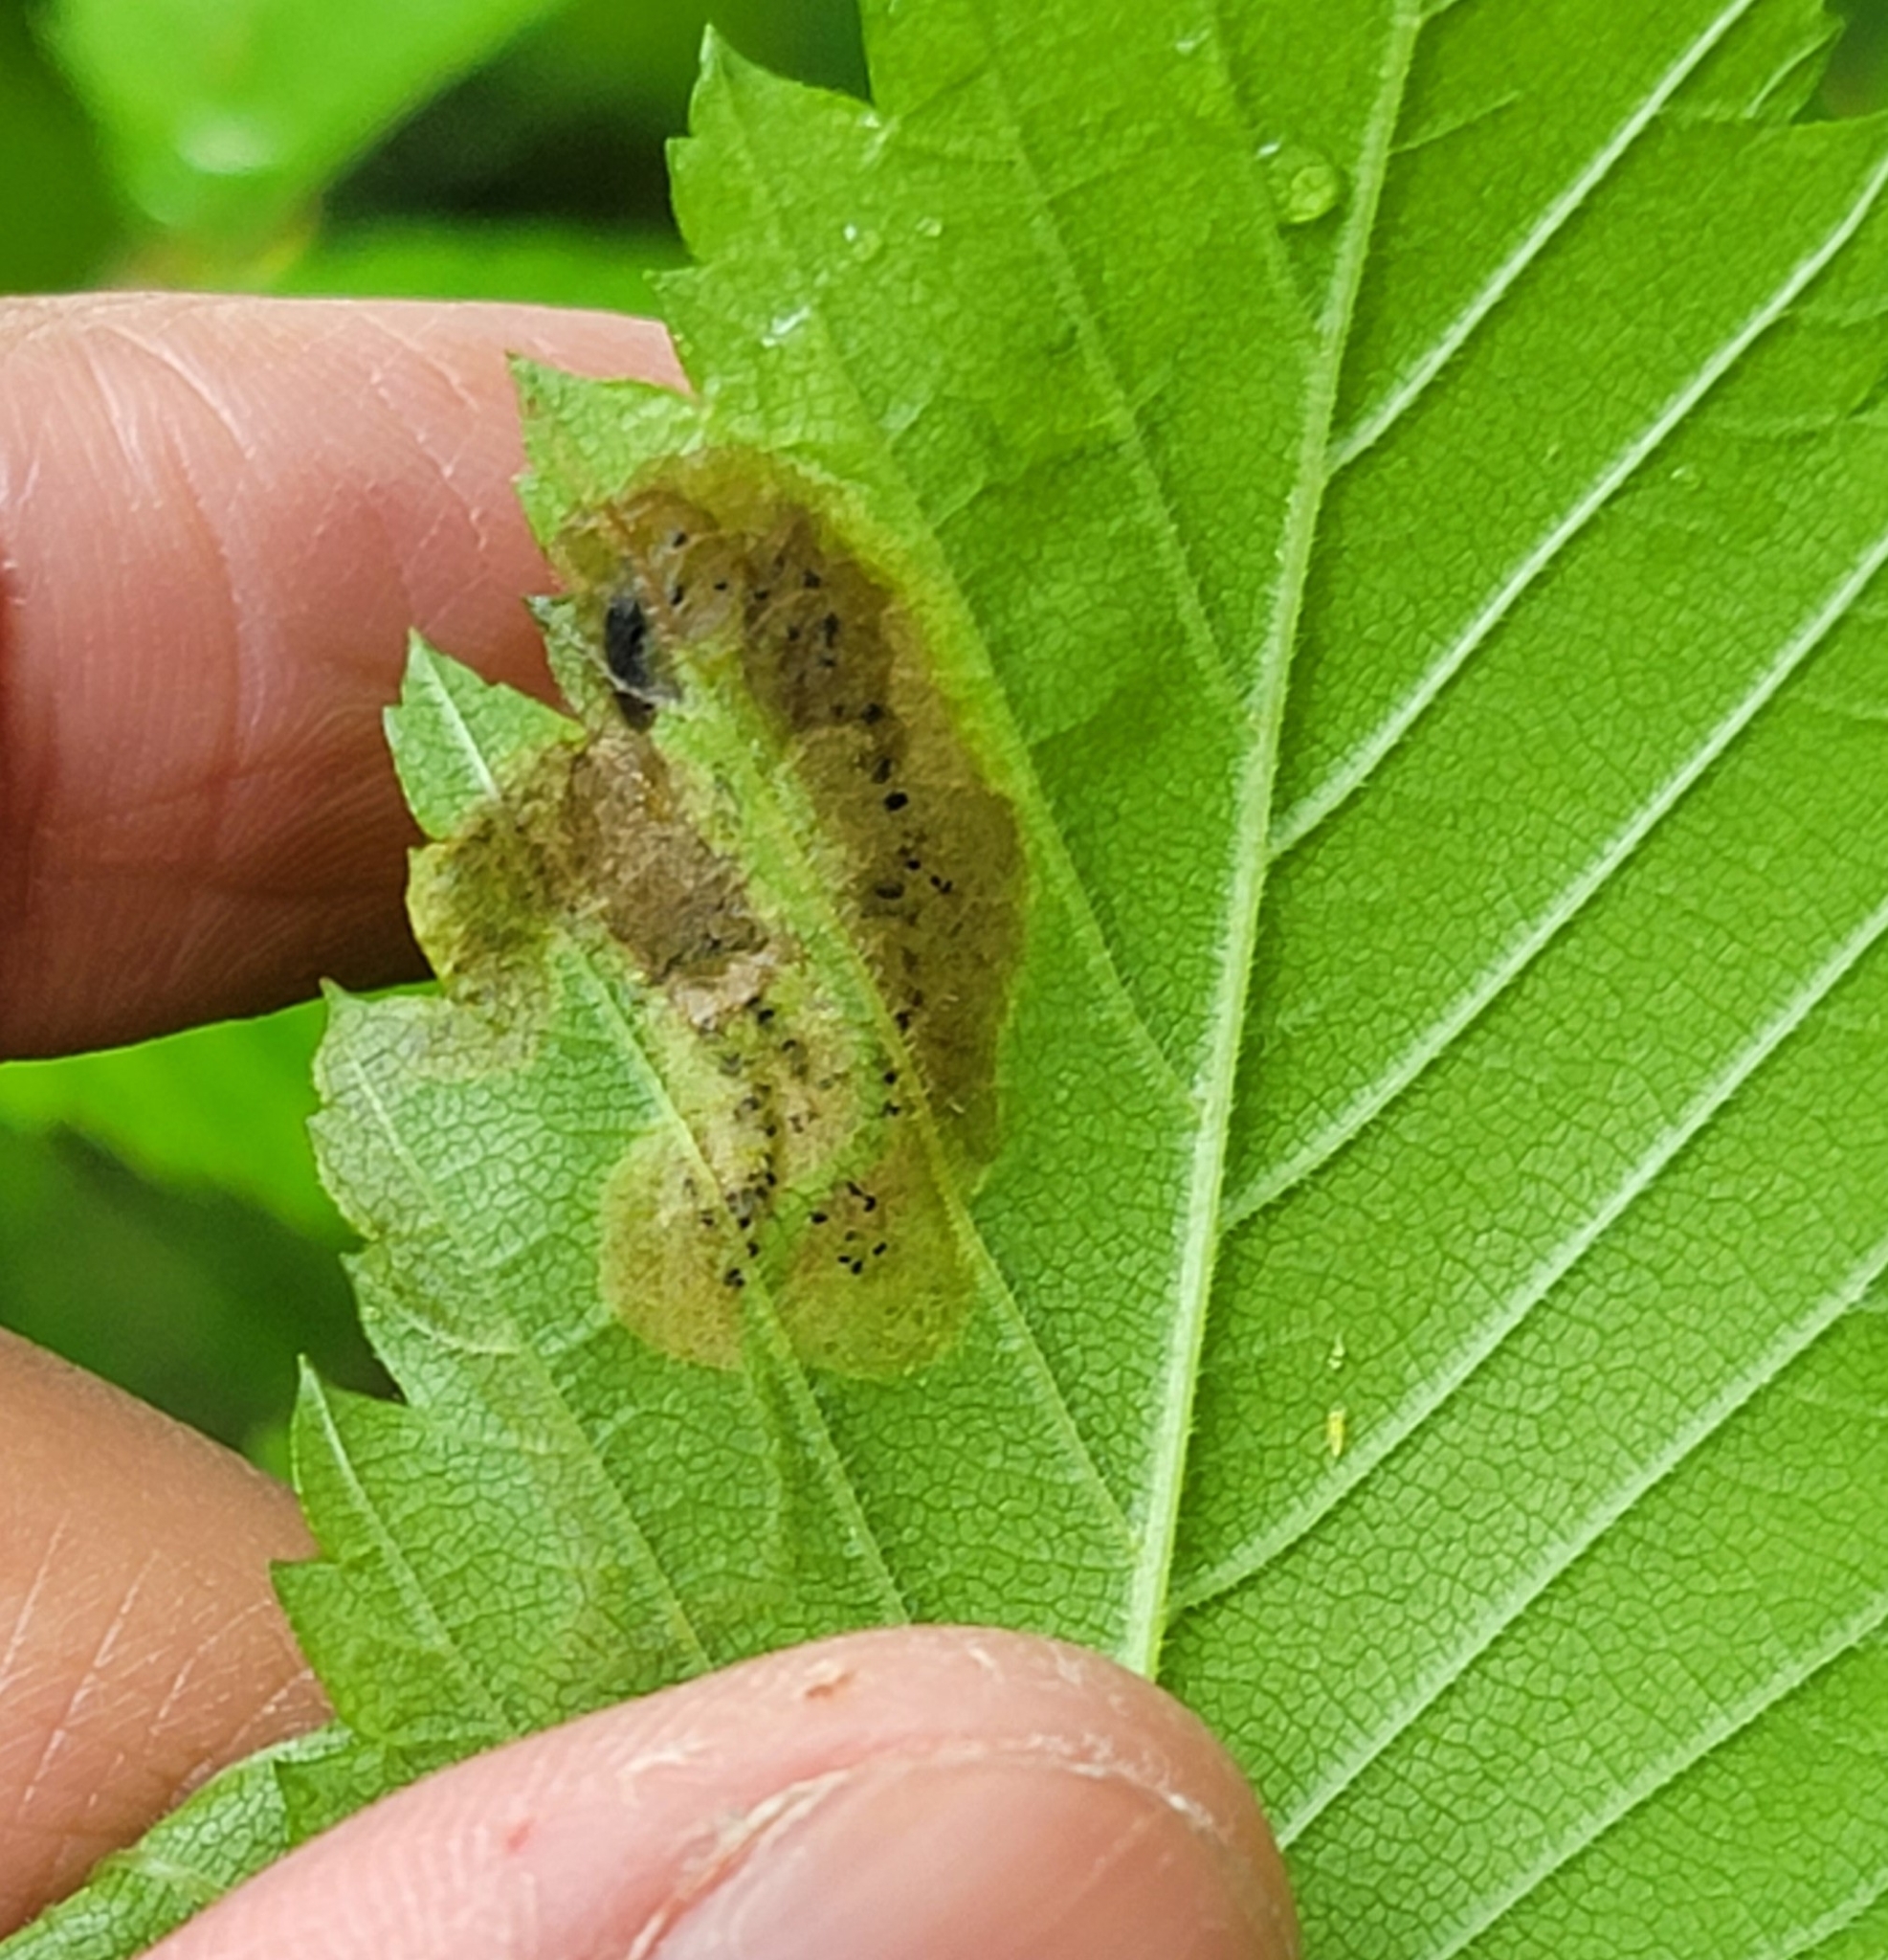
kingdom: Animalia
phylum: Arthropoda
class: Insecta
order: Diptera
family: Agromyzidae
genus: Agromyza
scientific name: Agromyza aristata
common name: Elm agromyzid leafminer
